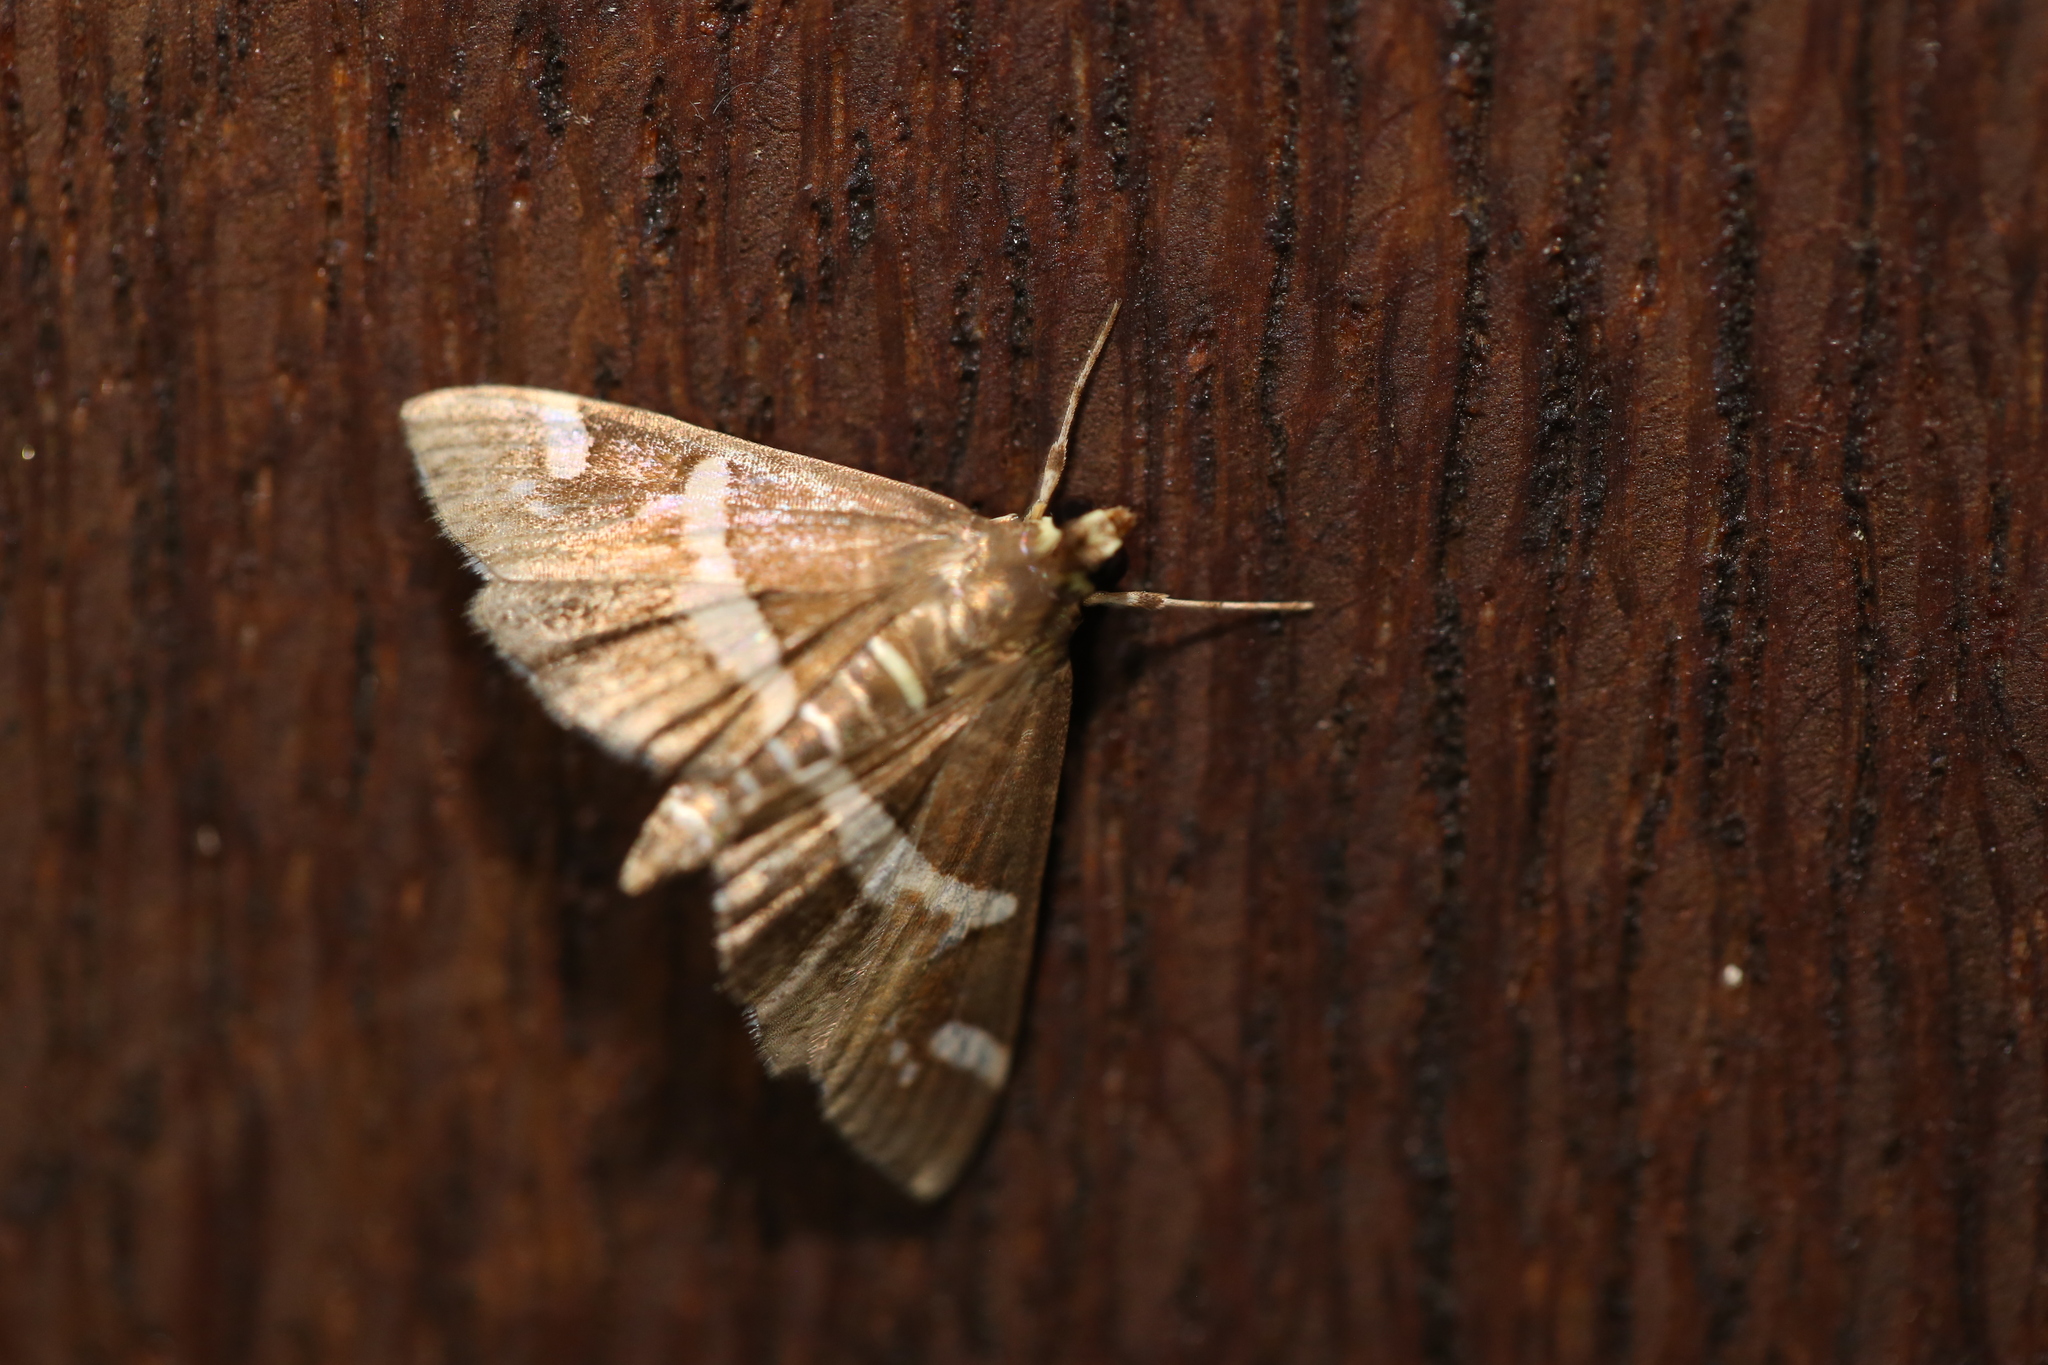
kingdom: Animalia
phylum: Arthropoda
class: Insecta
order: Lepidoptera
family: Crambidae
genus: Spoladea
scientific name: Spoladea recurvalis
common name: Beet webworm moth
